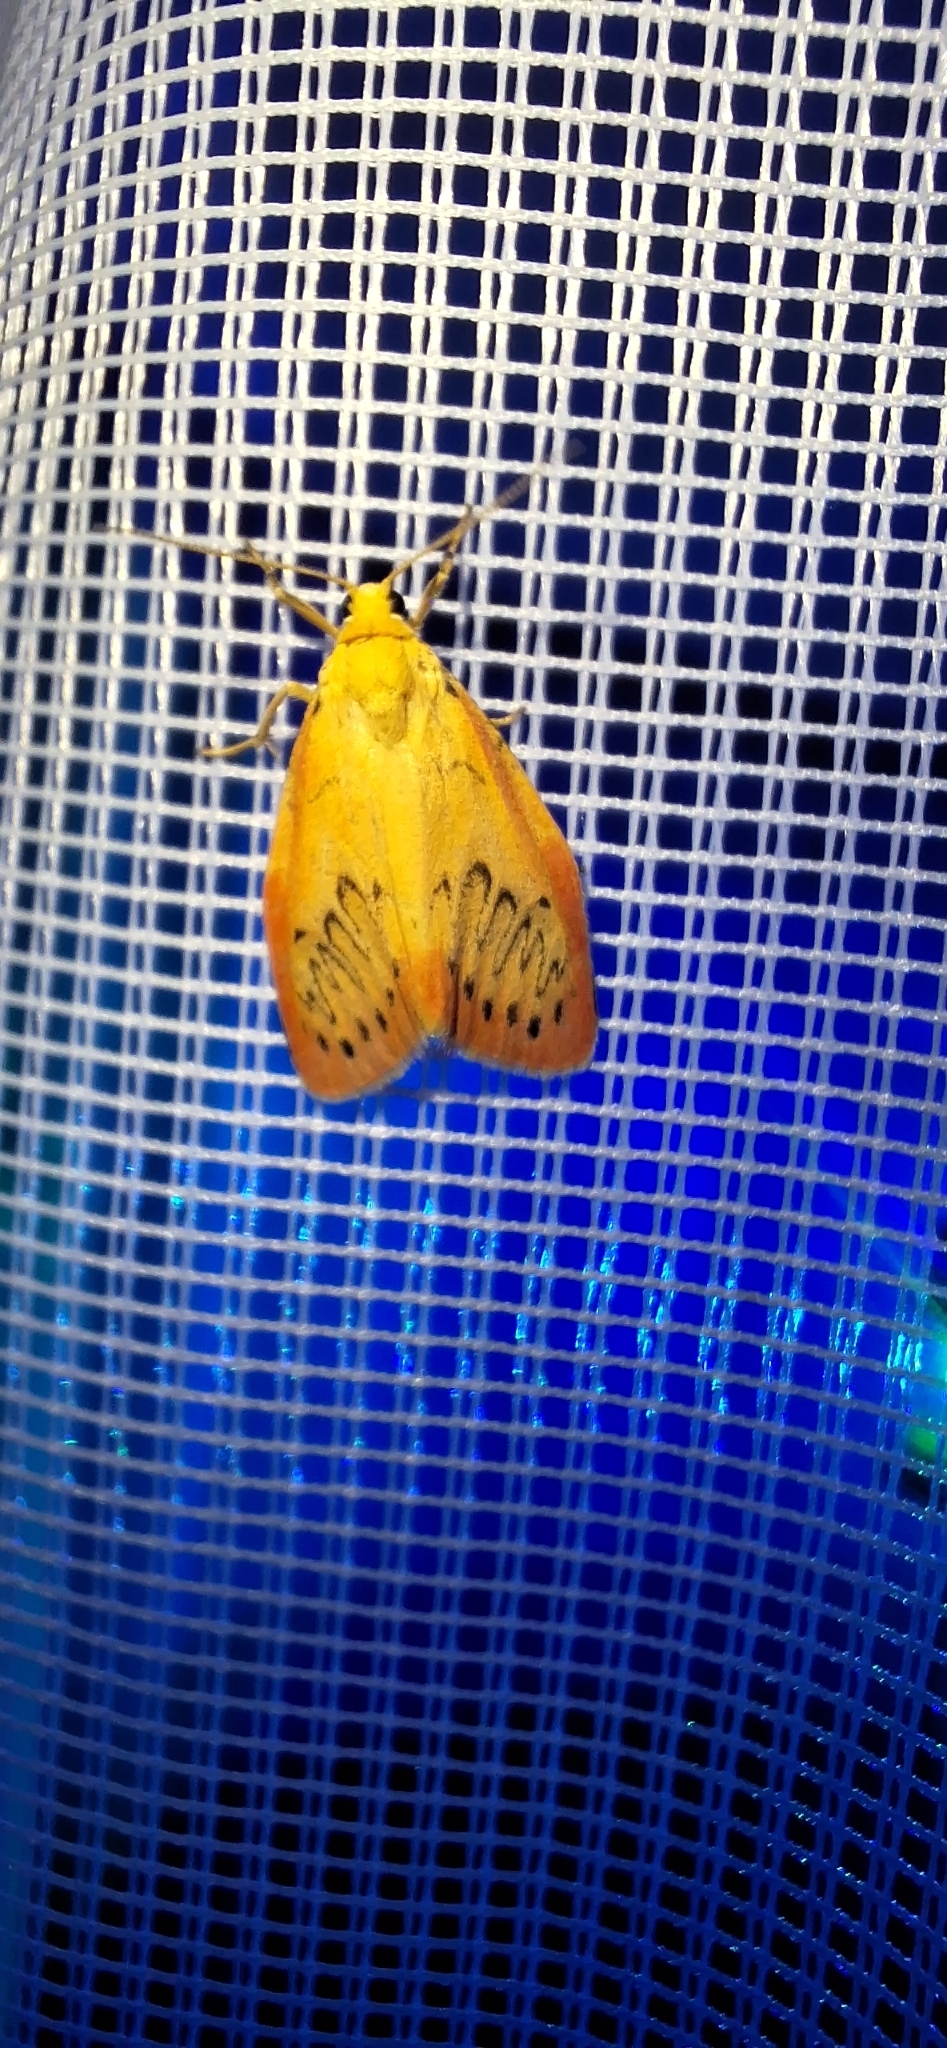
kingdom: Animalia
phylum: Arthropoda
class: Insecta
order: Lepidoptera
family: Erebidae
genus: Miltochrista
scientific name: Miltochrista miniata
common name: Rosy footman
